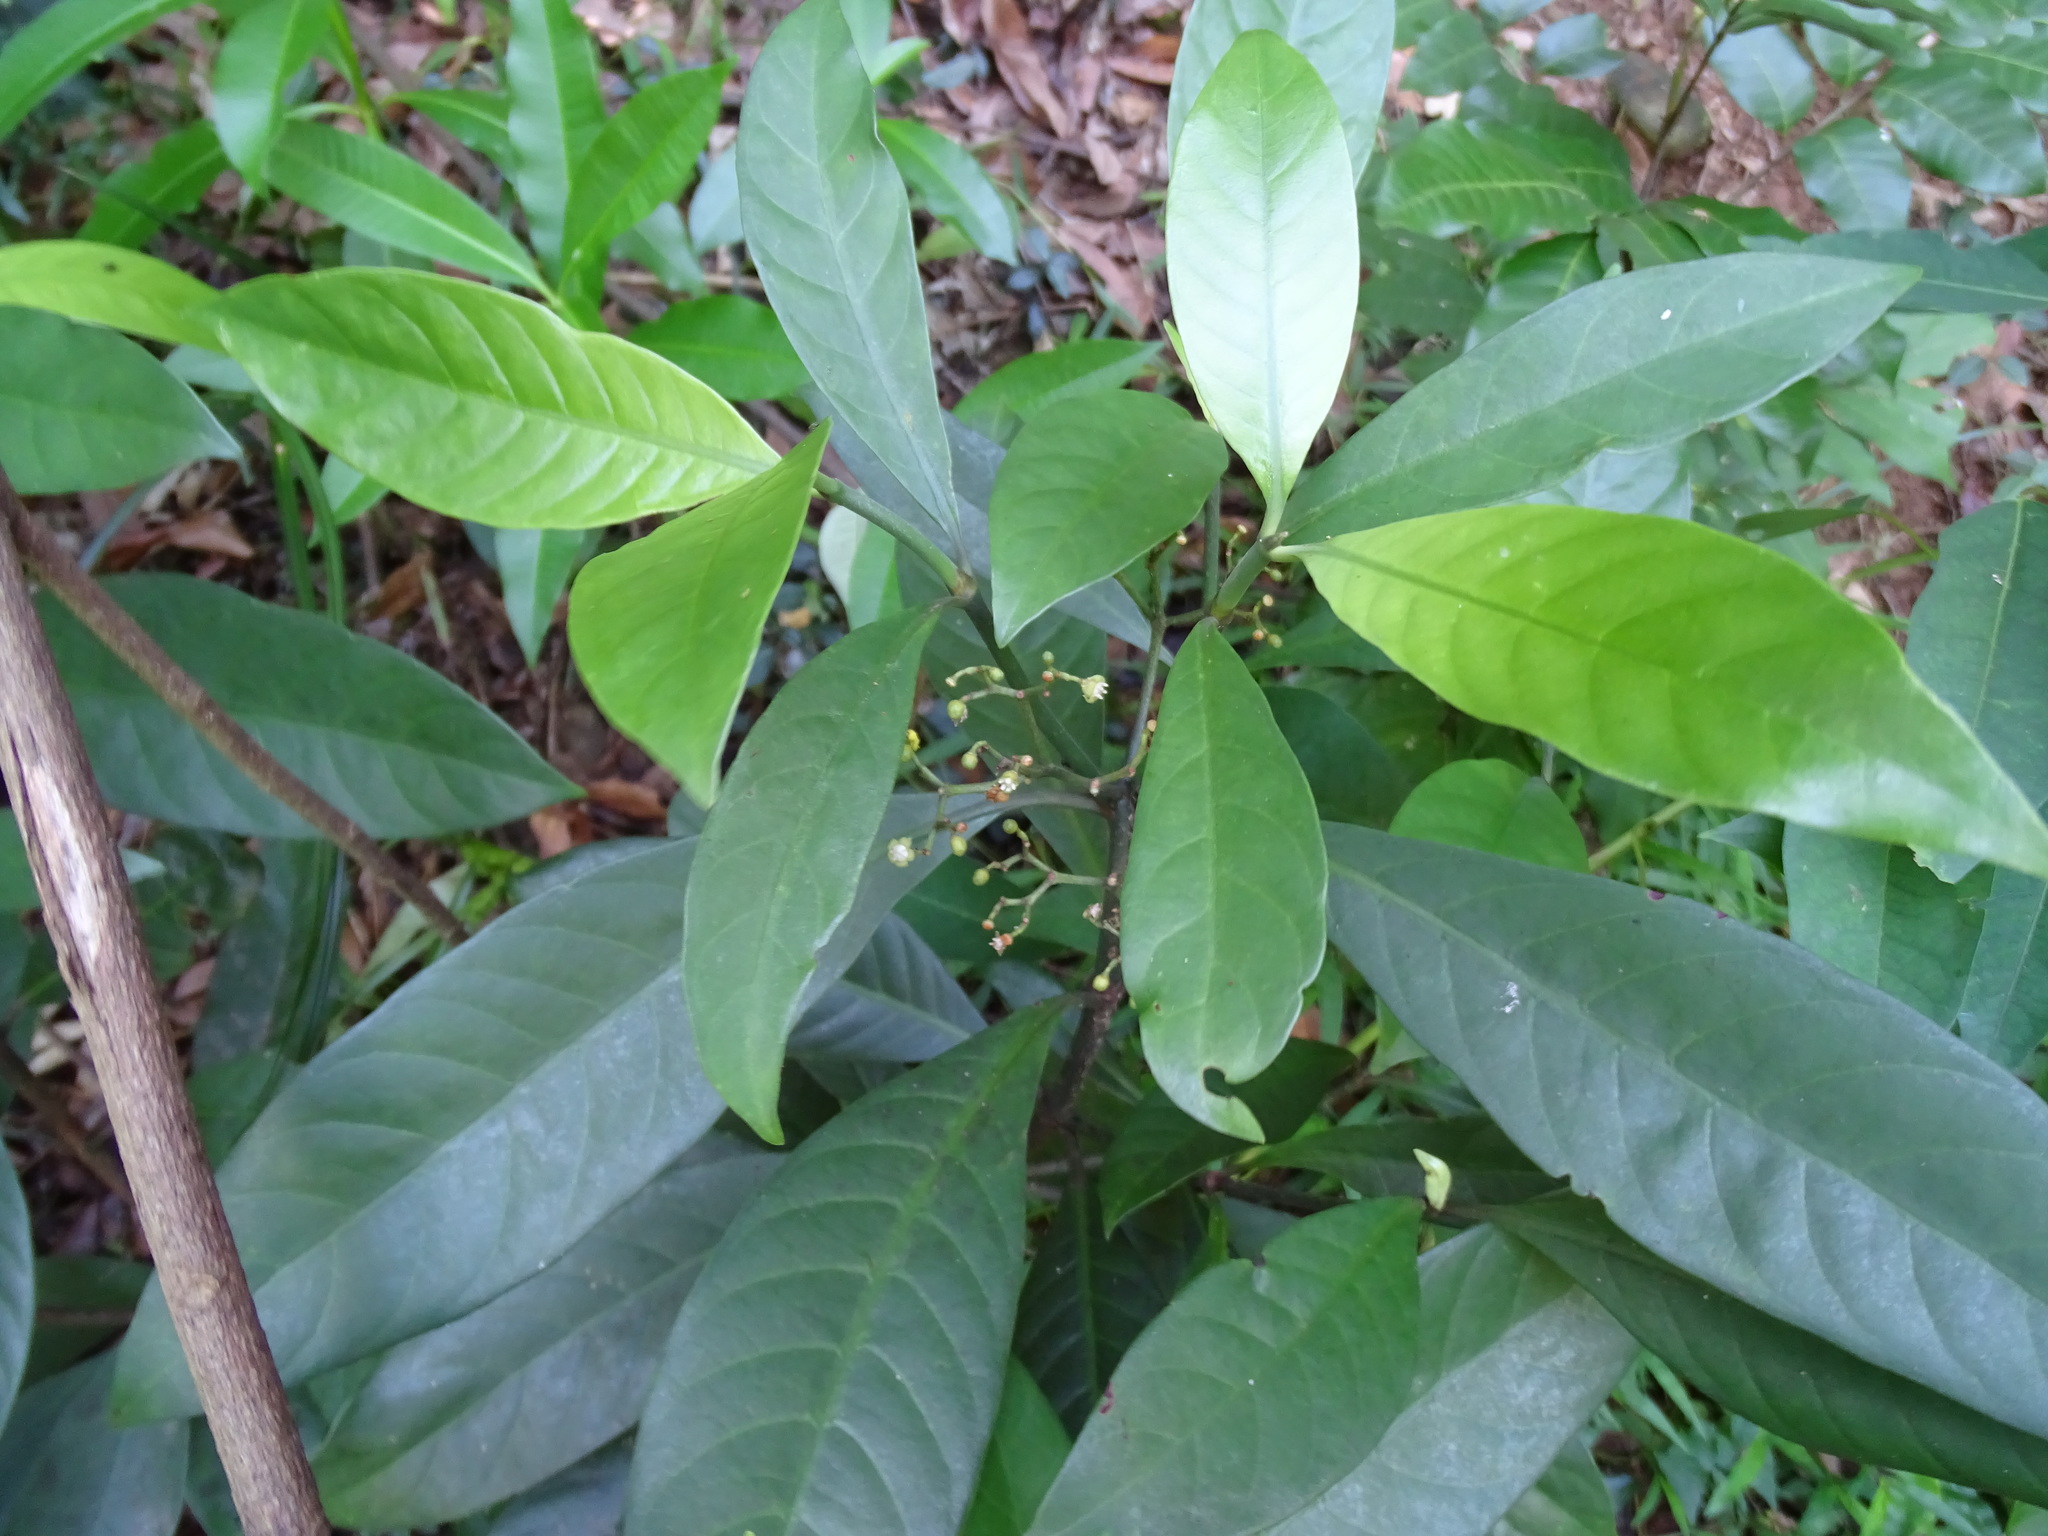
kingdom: Plantae
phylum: Tracheophyta
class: Magnoliopsida
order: Gentianales
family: Rubiaceae
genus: Psychotria
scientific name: Psychotria asiatica
